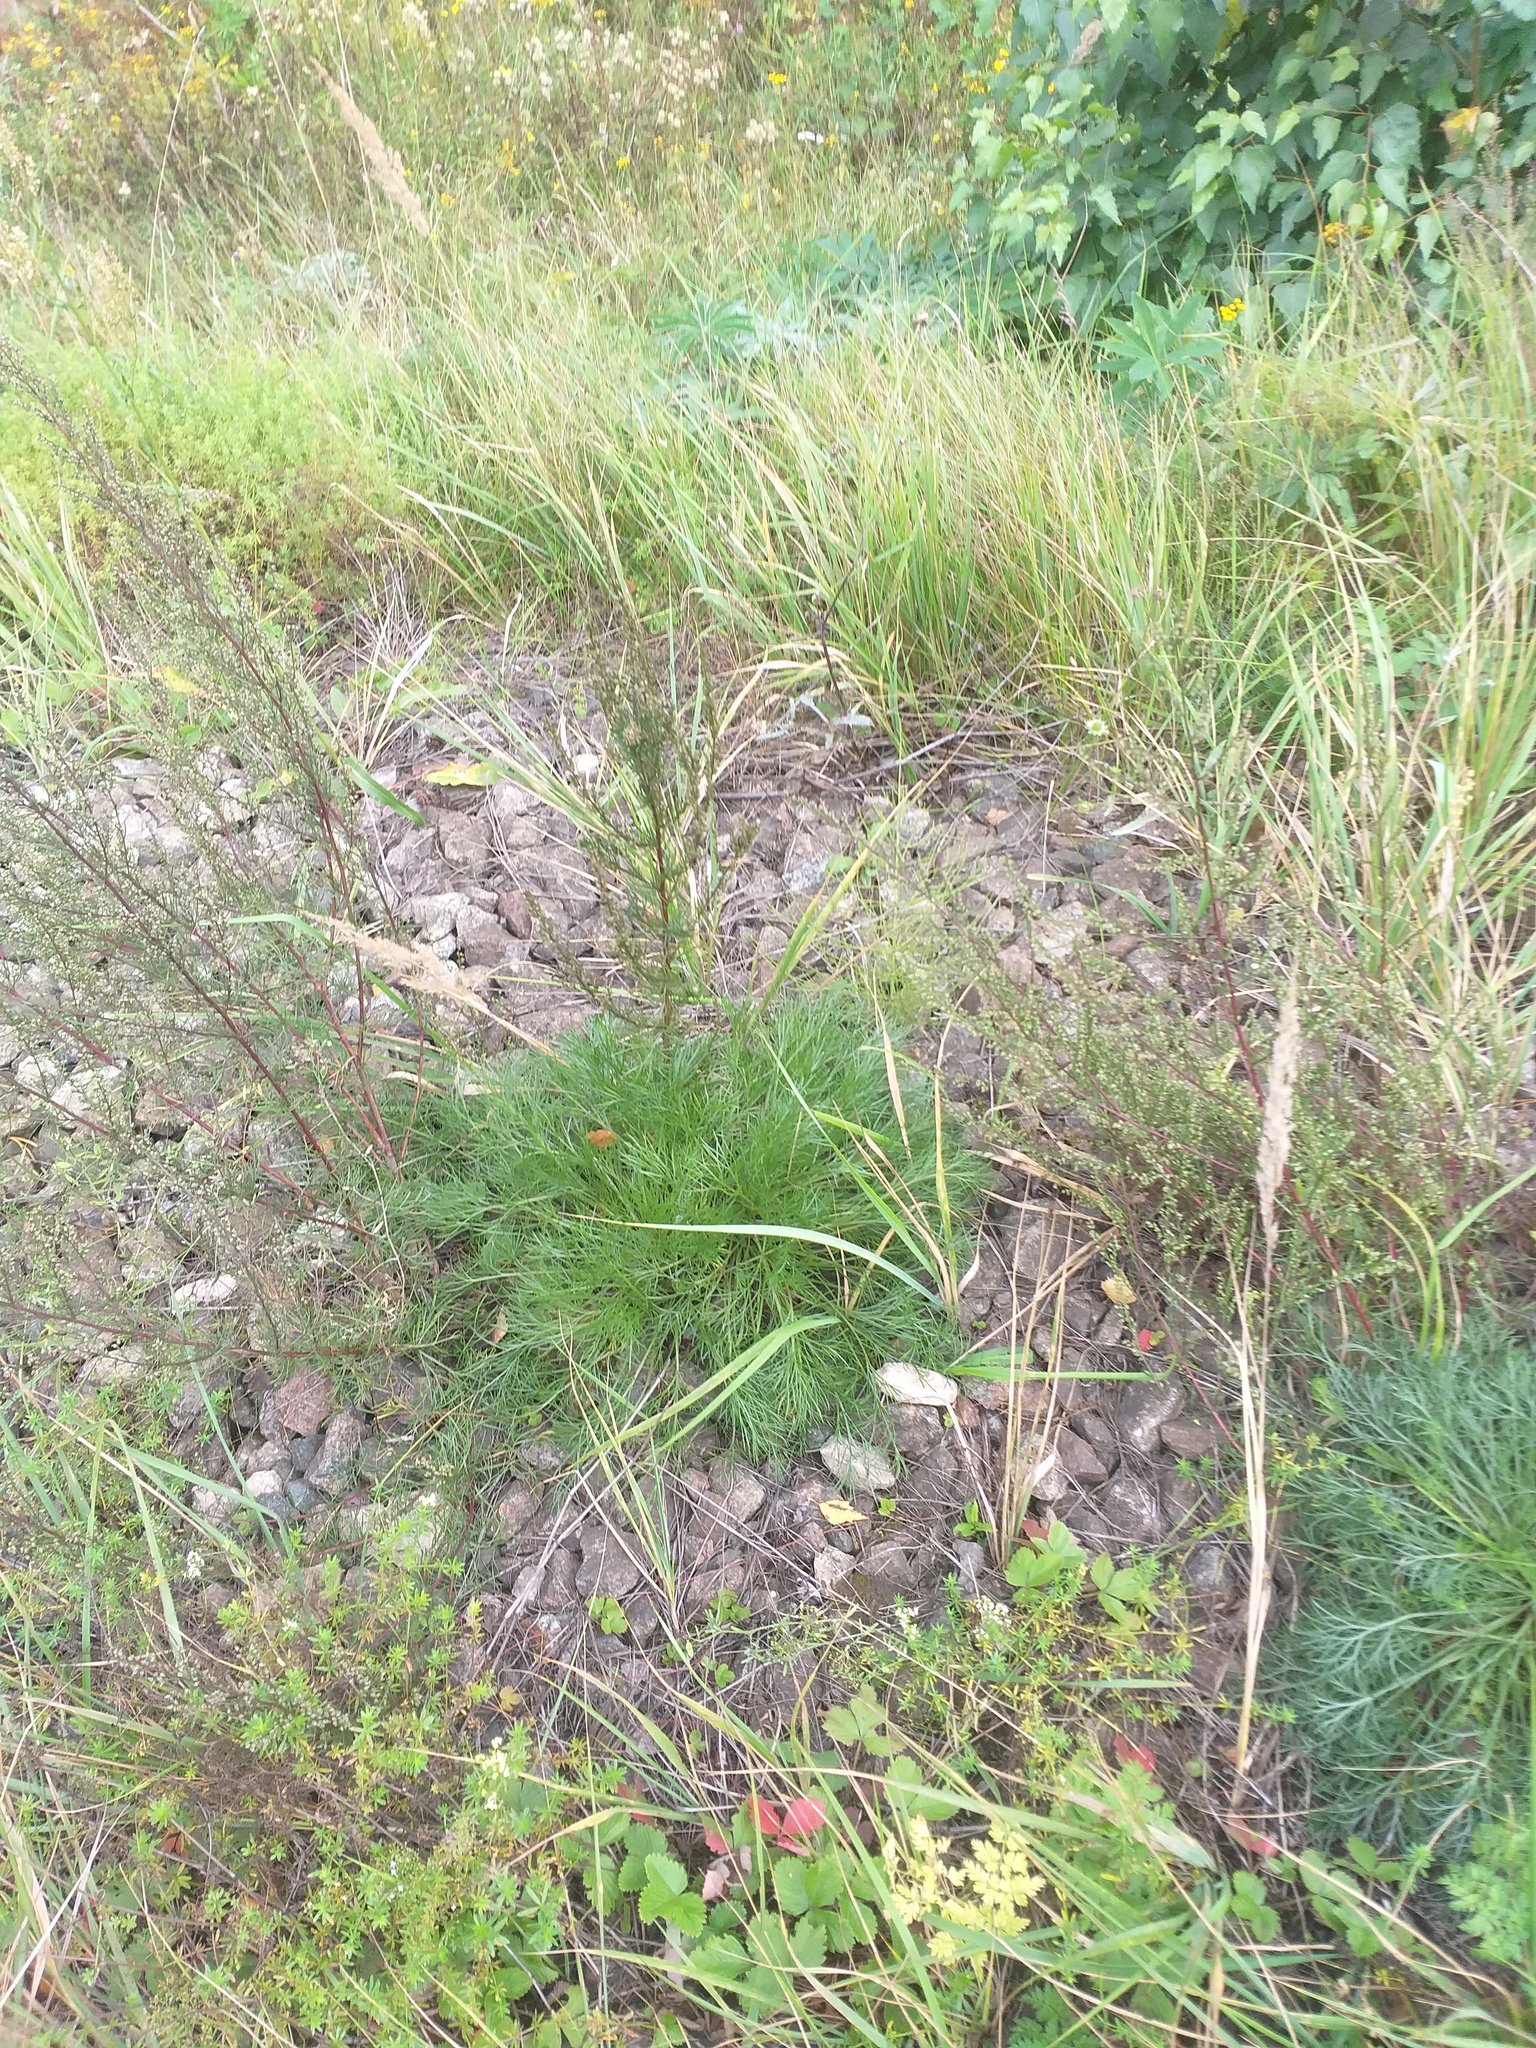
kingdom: Plantae
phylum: Tracheophyta
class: Magnoliopsida
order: Asterales
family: Asteraceae
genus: Artemisia
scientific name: Artemisia campestris
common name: Field wormwood
